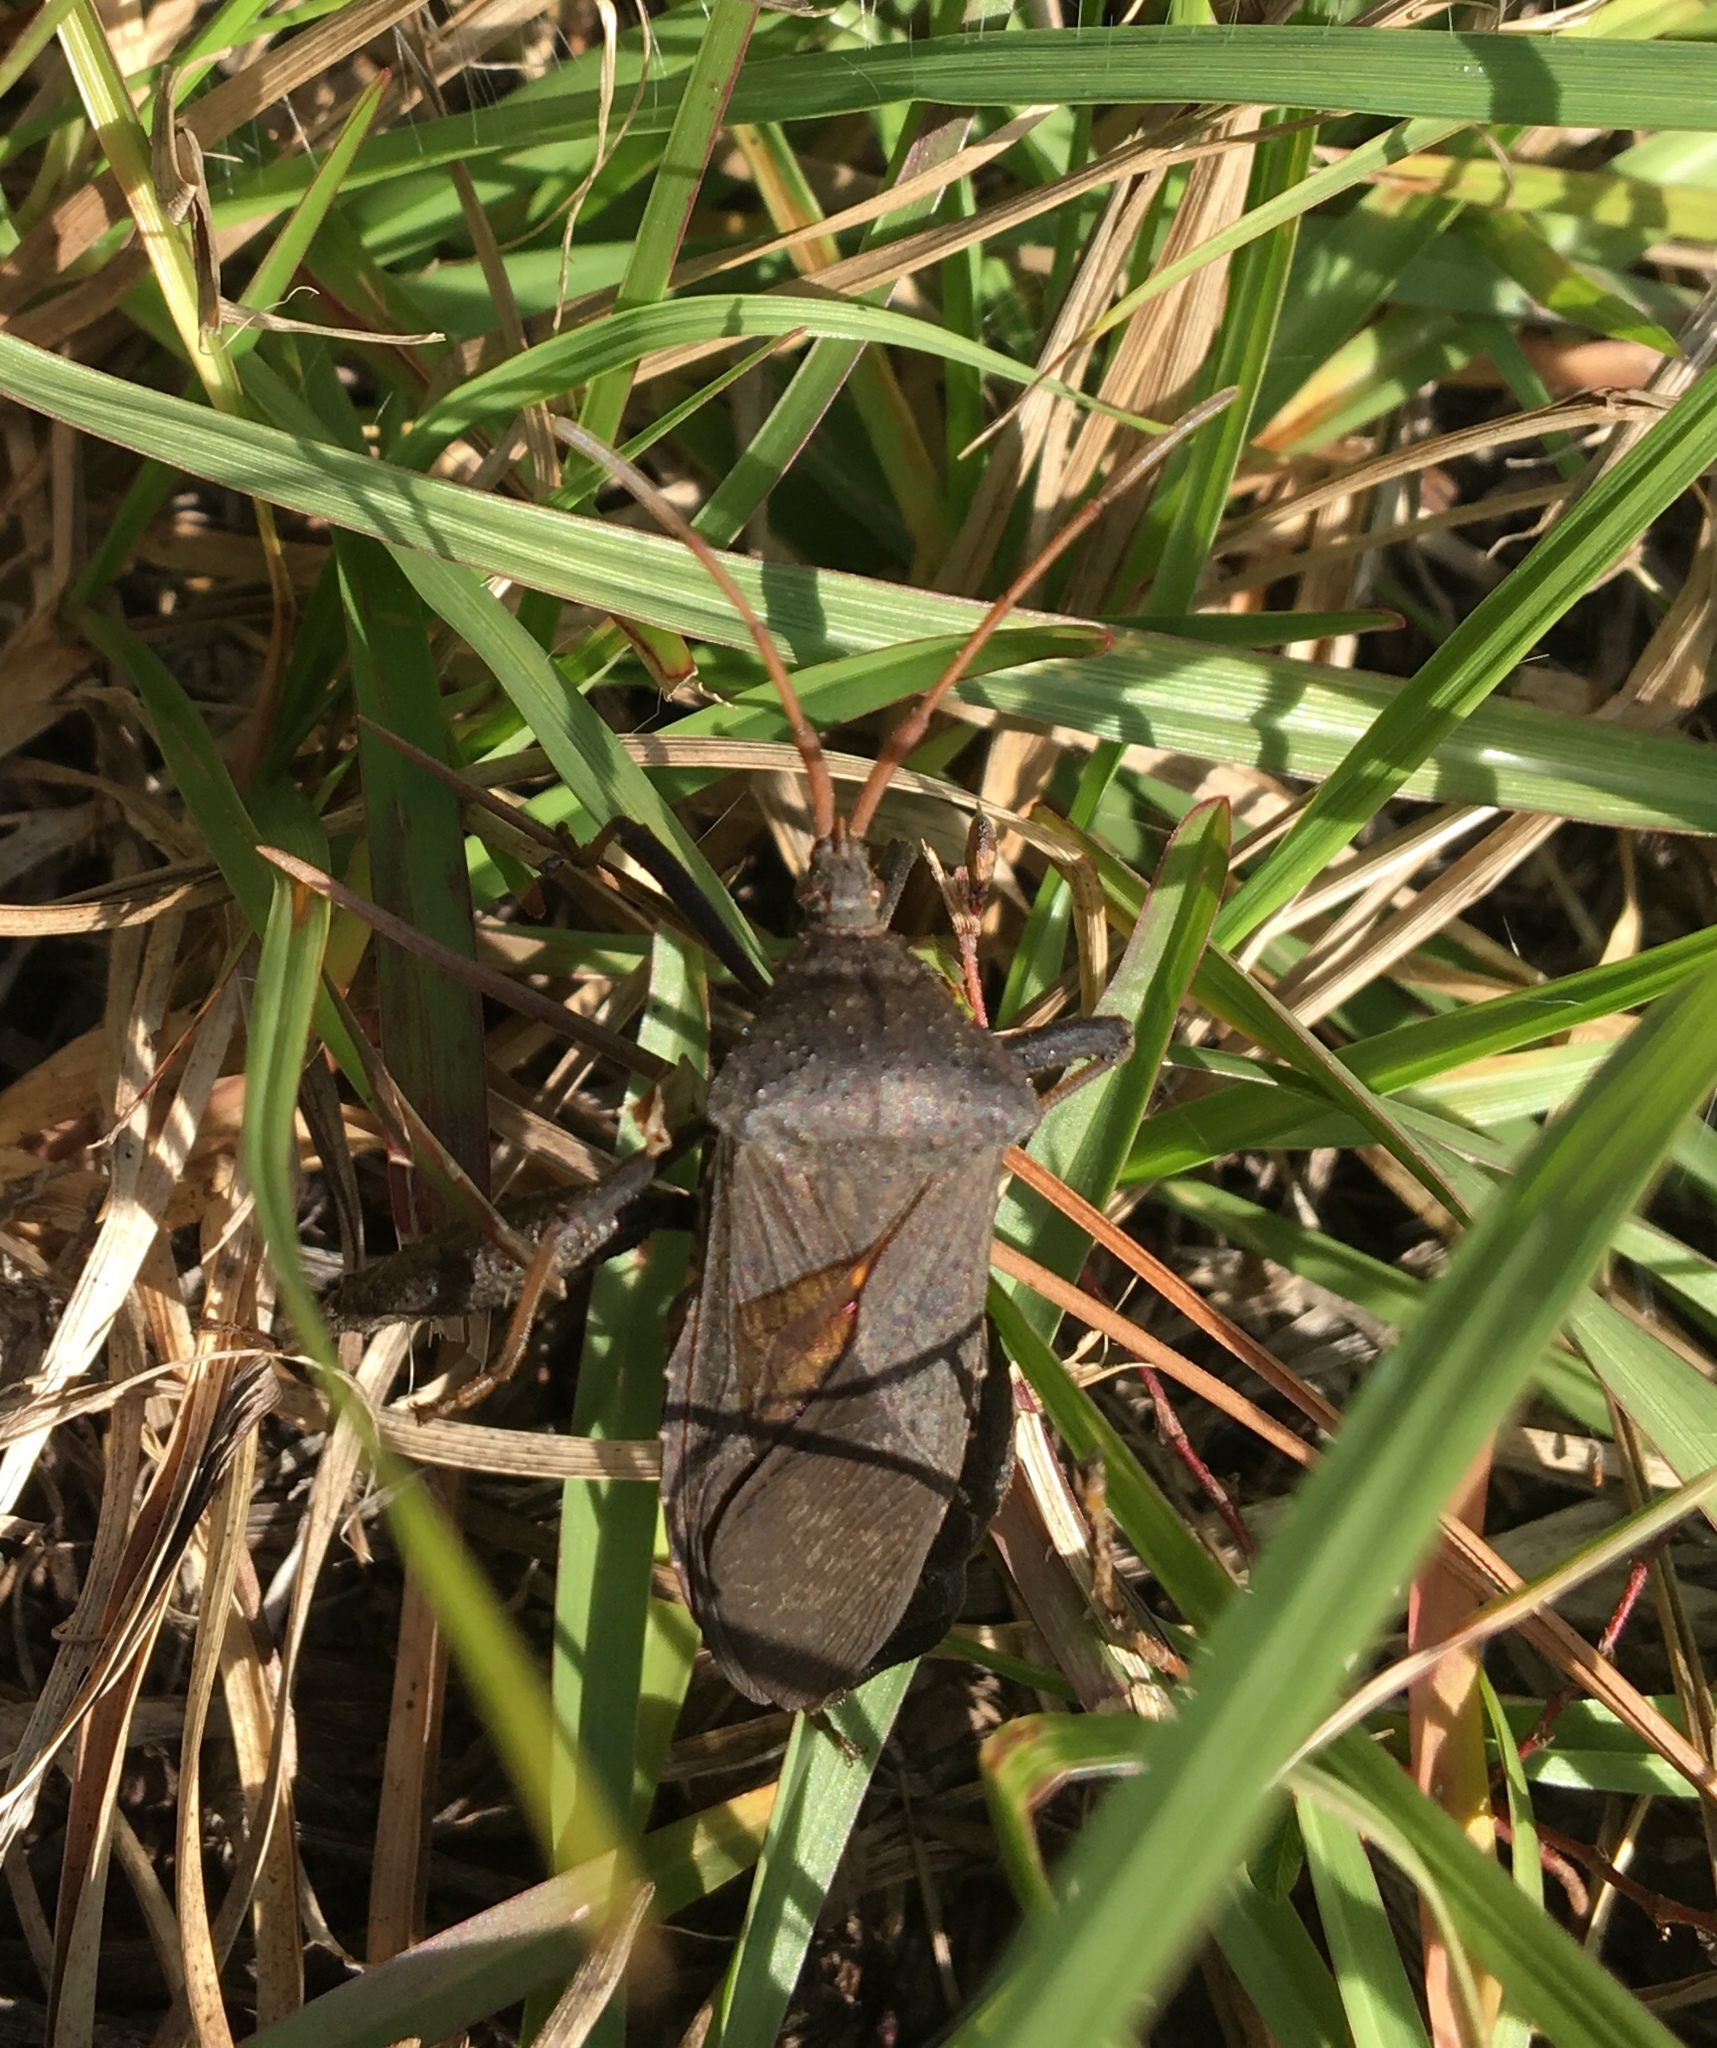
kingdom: Animalia
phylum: Arthropoda
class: Insecta
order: Hemiptera
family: Coreidae
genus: Acanthocephala
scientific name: Acanthocephala femorata
